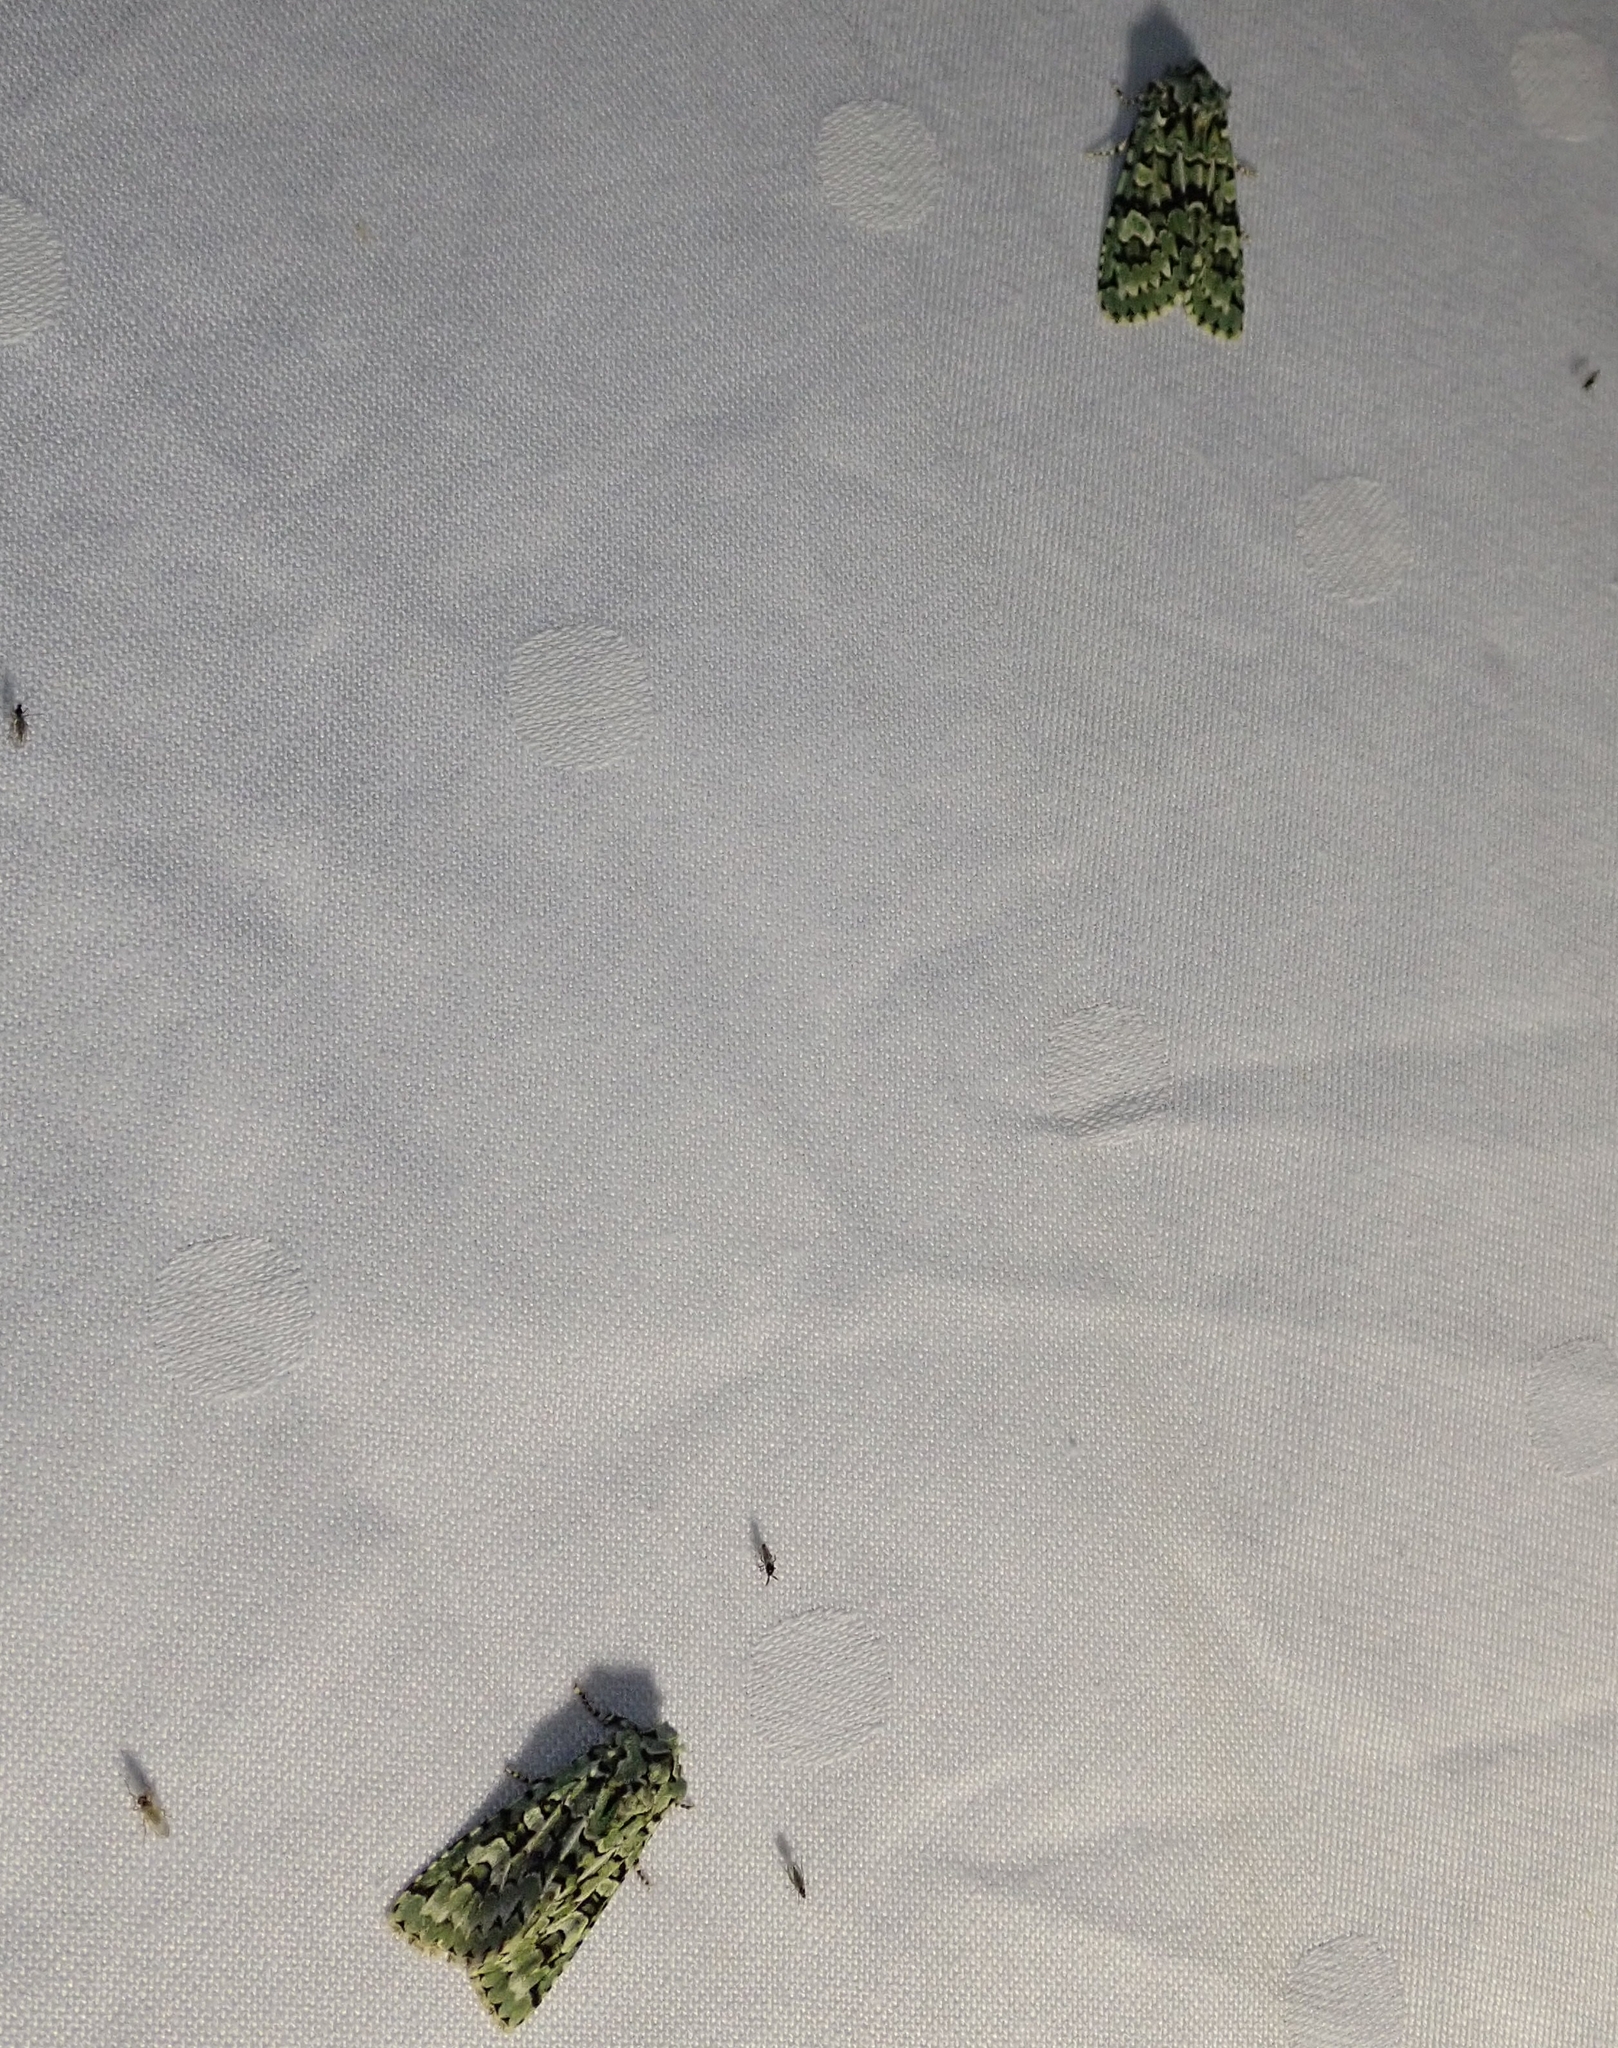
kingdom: Animalia
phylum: Arthropoda
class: Insecta
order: Lepidoptera
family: Noctuidae
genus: Griposia
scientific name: Griposia aprilina
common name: Merveille du jour
